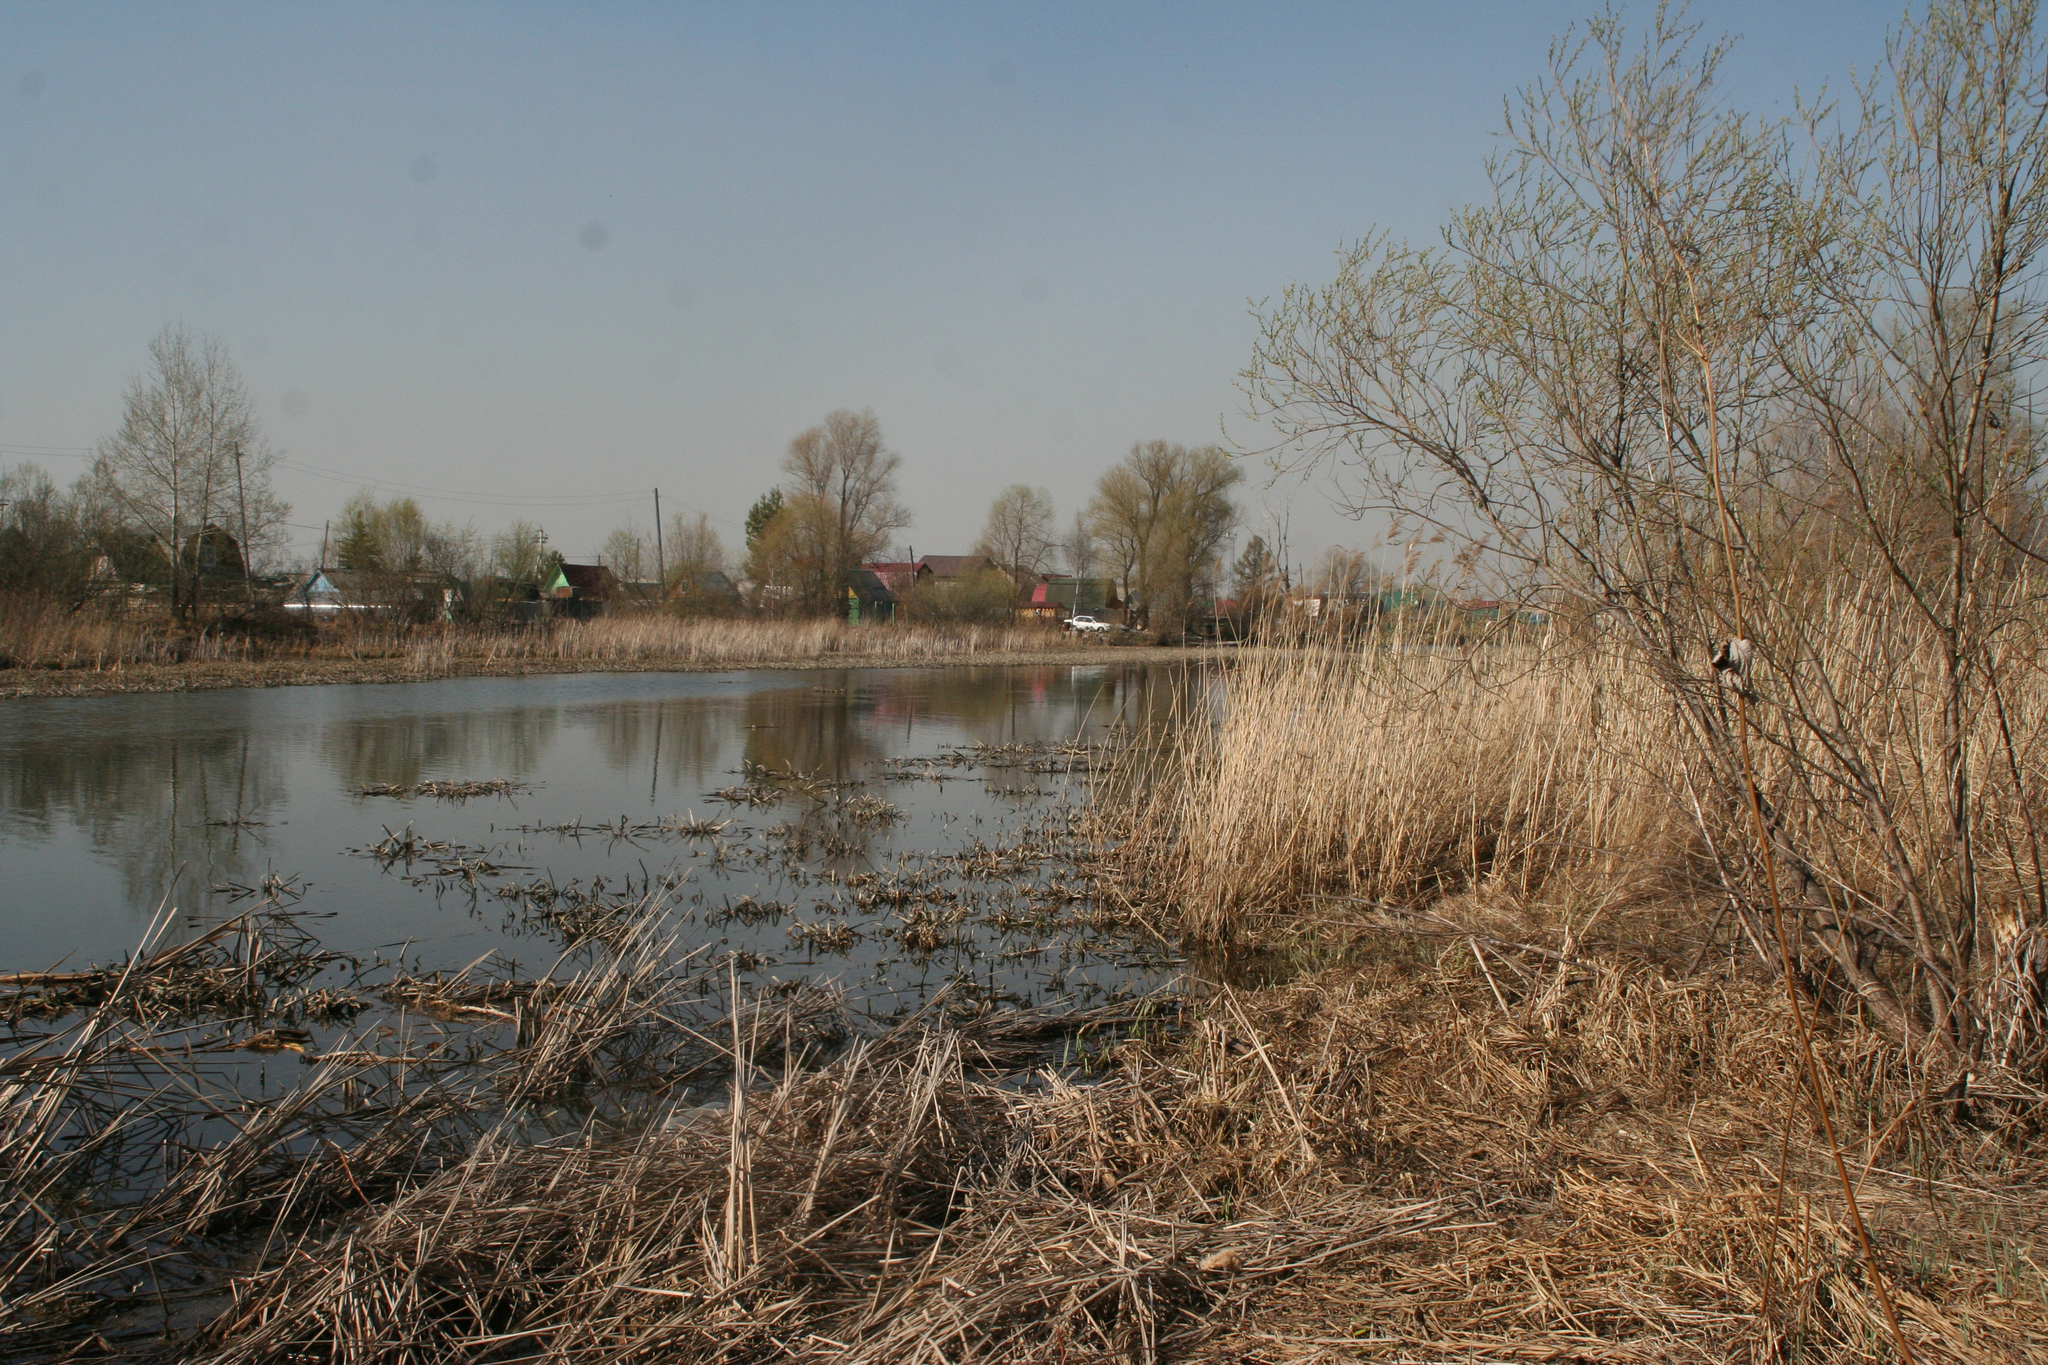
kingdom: Plantae
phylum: Tracheophyta
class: Liliopsida
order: Alismatales
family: Hydrocharitaceae
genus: Stratiotes
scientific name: Stratiotes aloides
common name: Water-soldier
